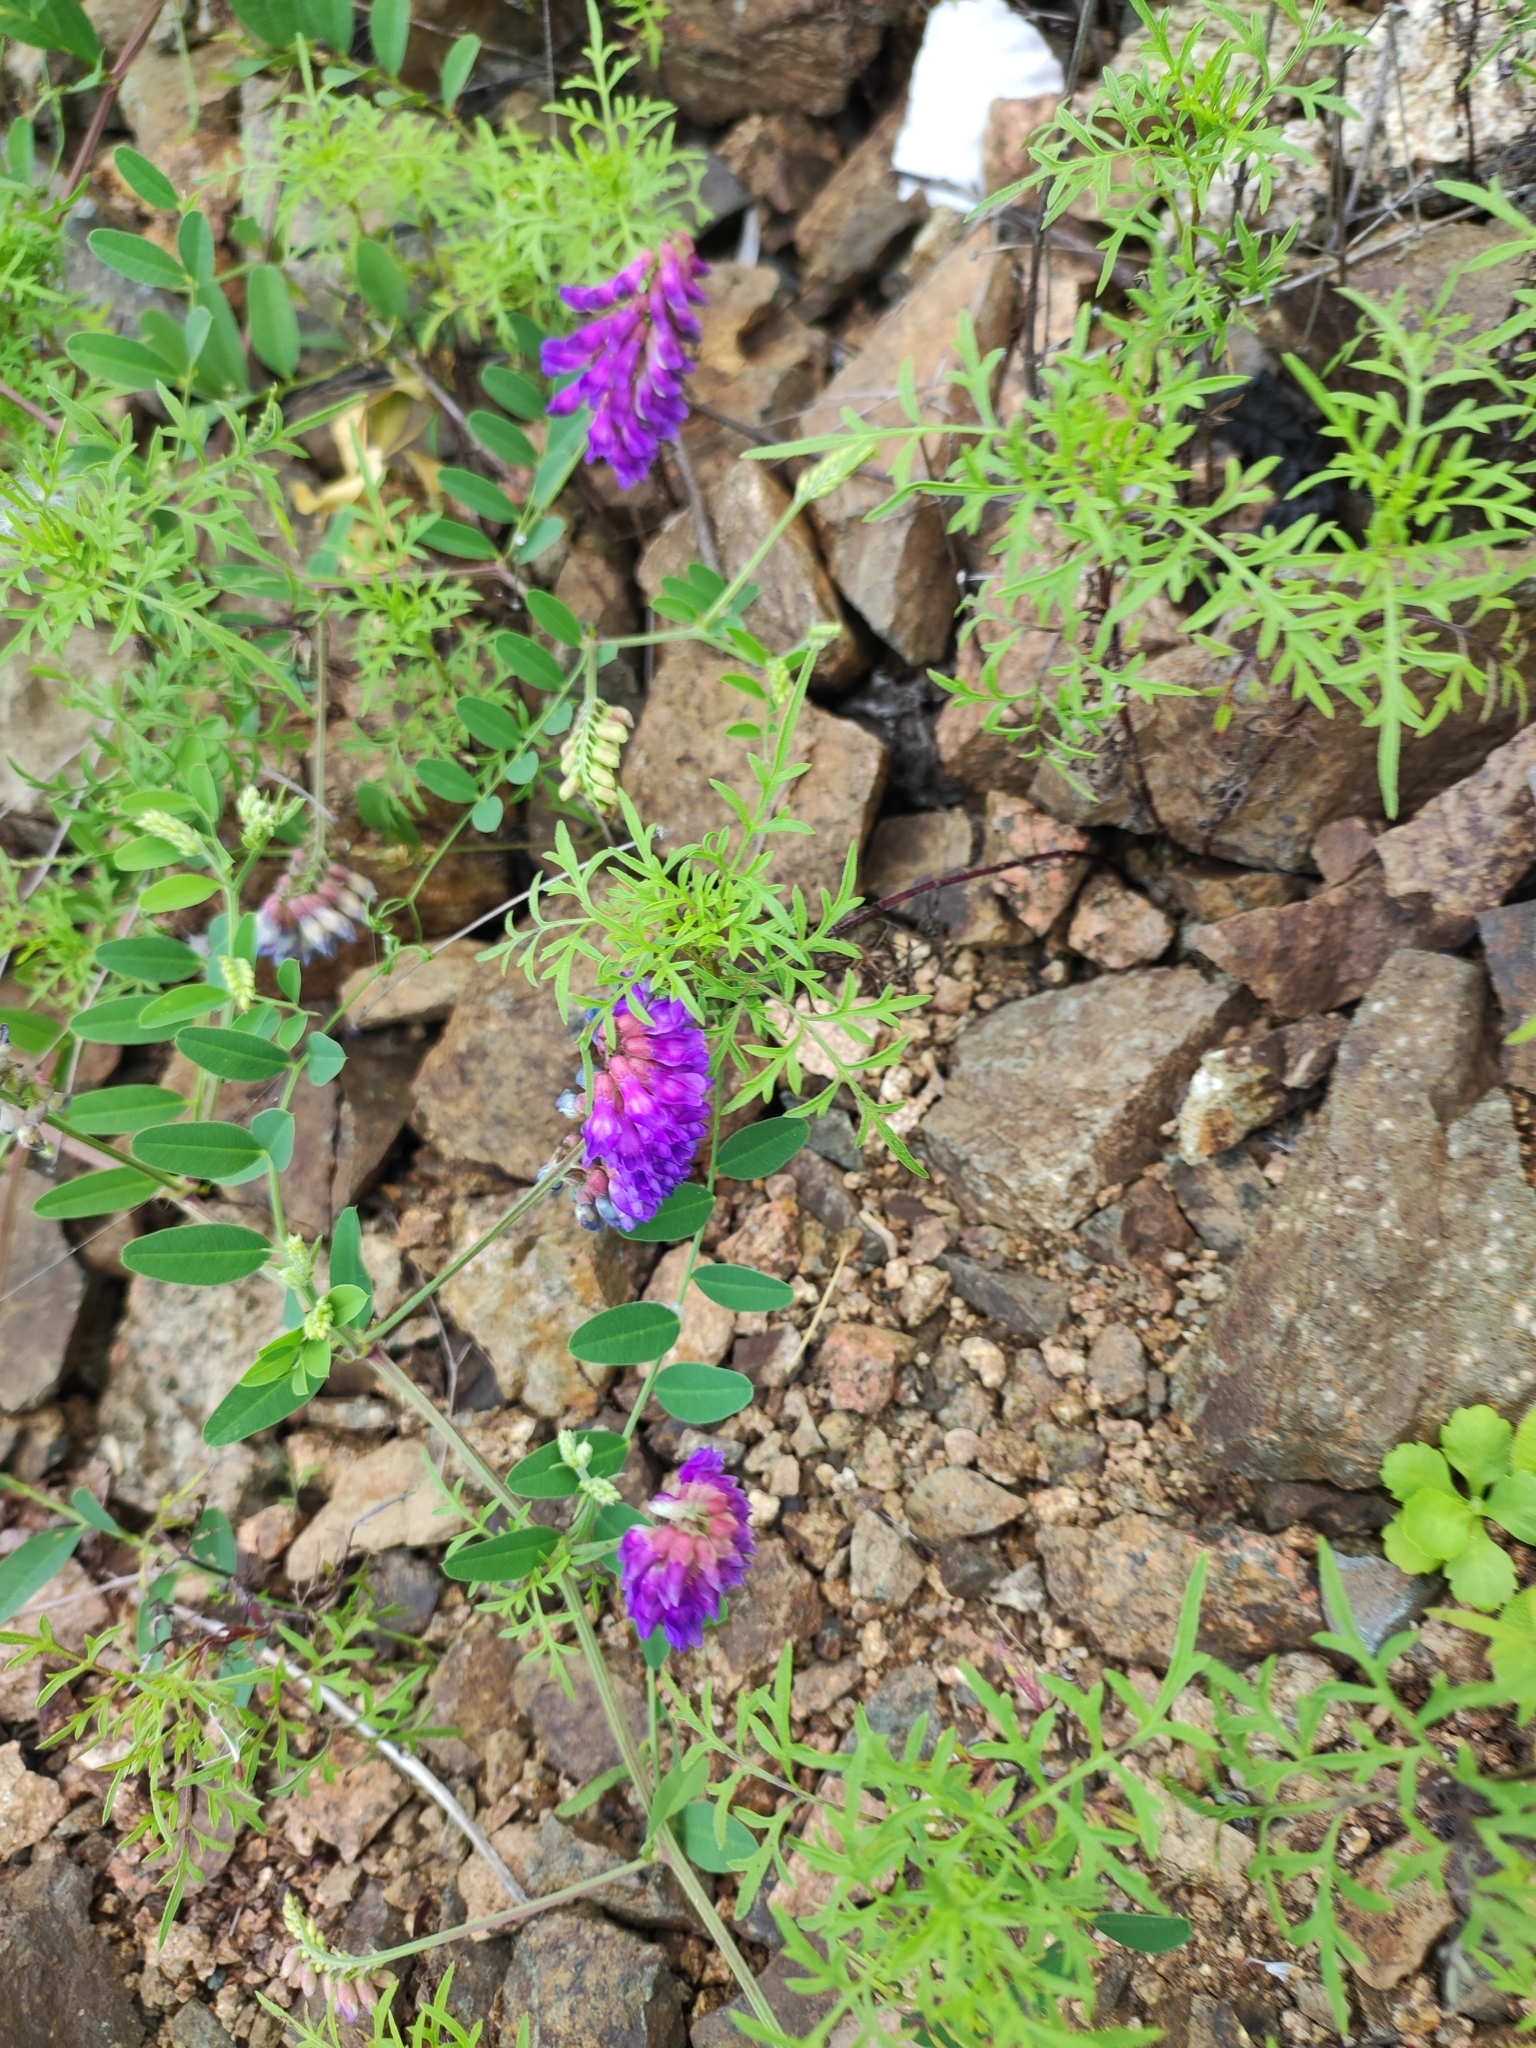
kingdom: Plantae
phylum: Tracheophyta
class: Magnoliopsida
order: Fabales
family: Fabaceae
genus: Vicia
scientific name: Vicia amurensis
